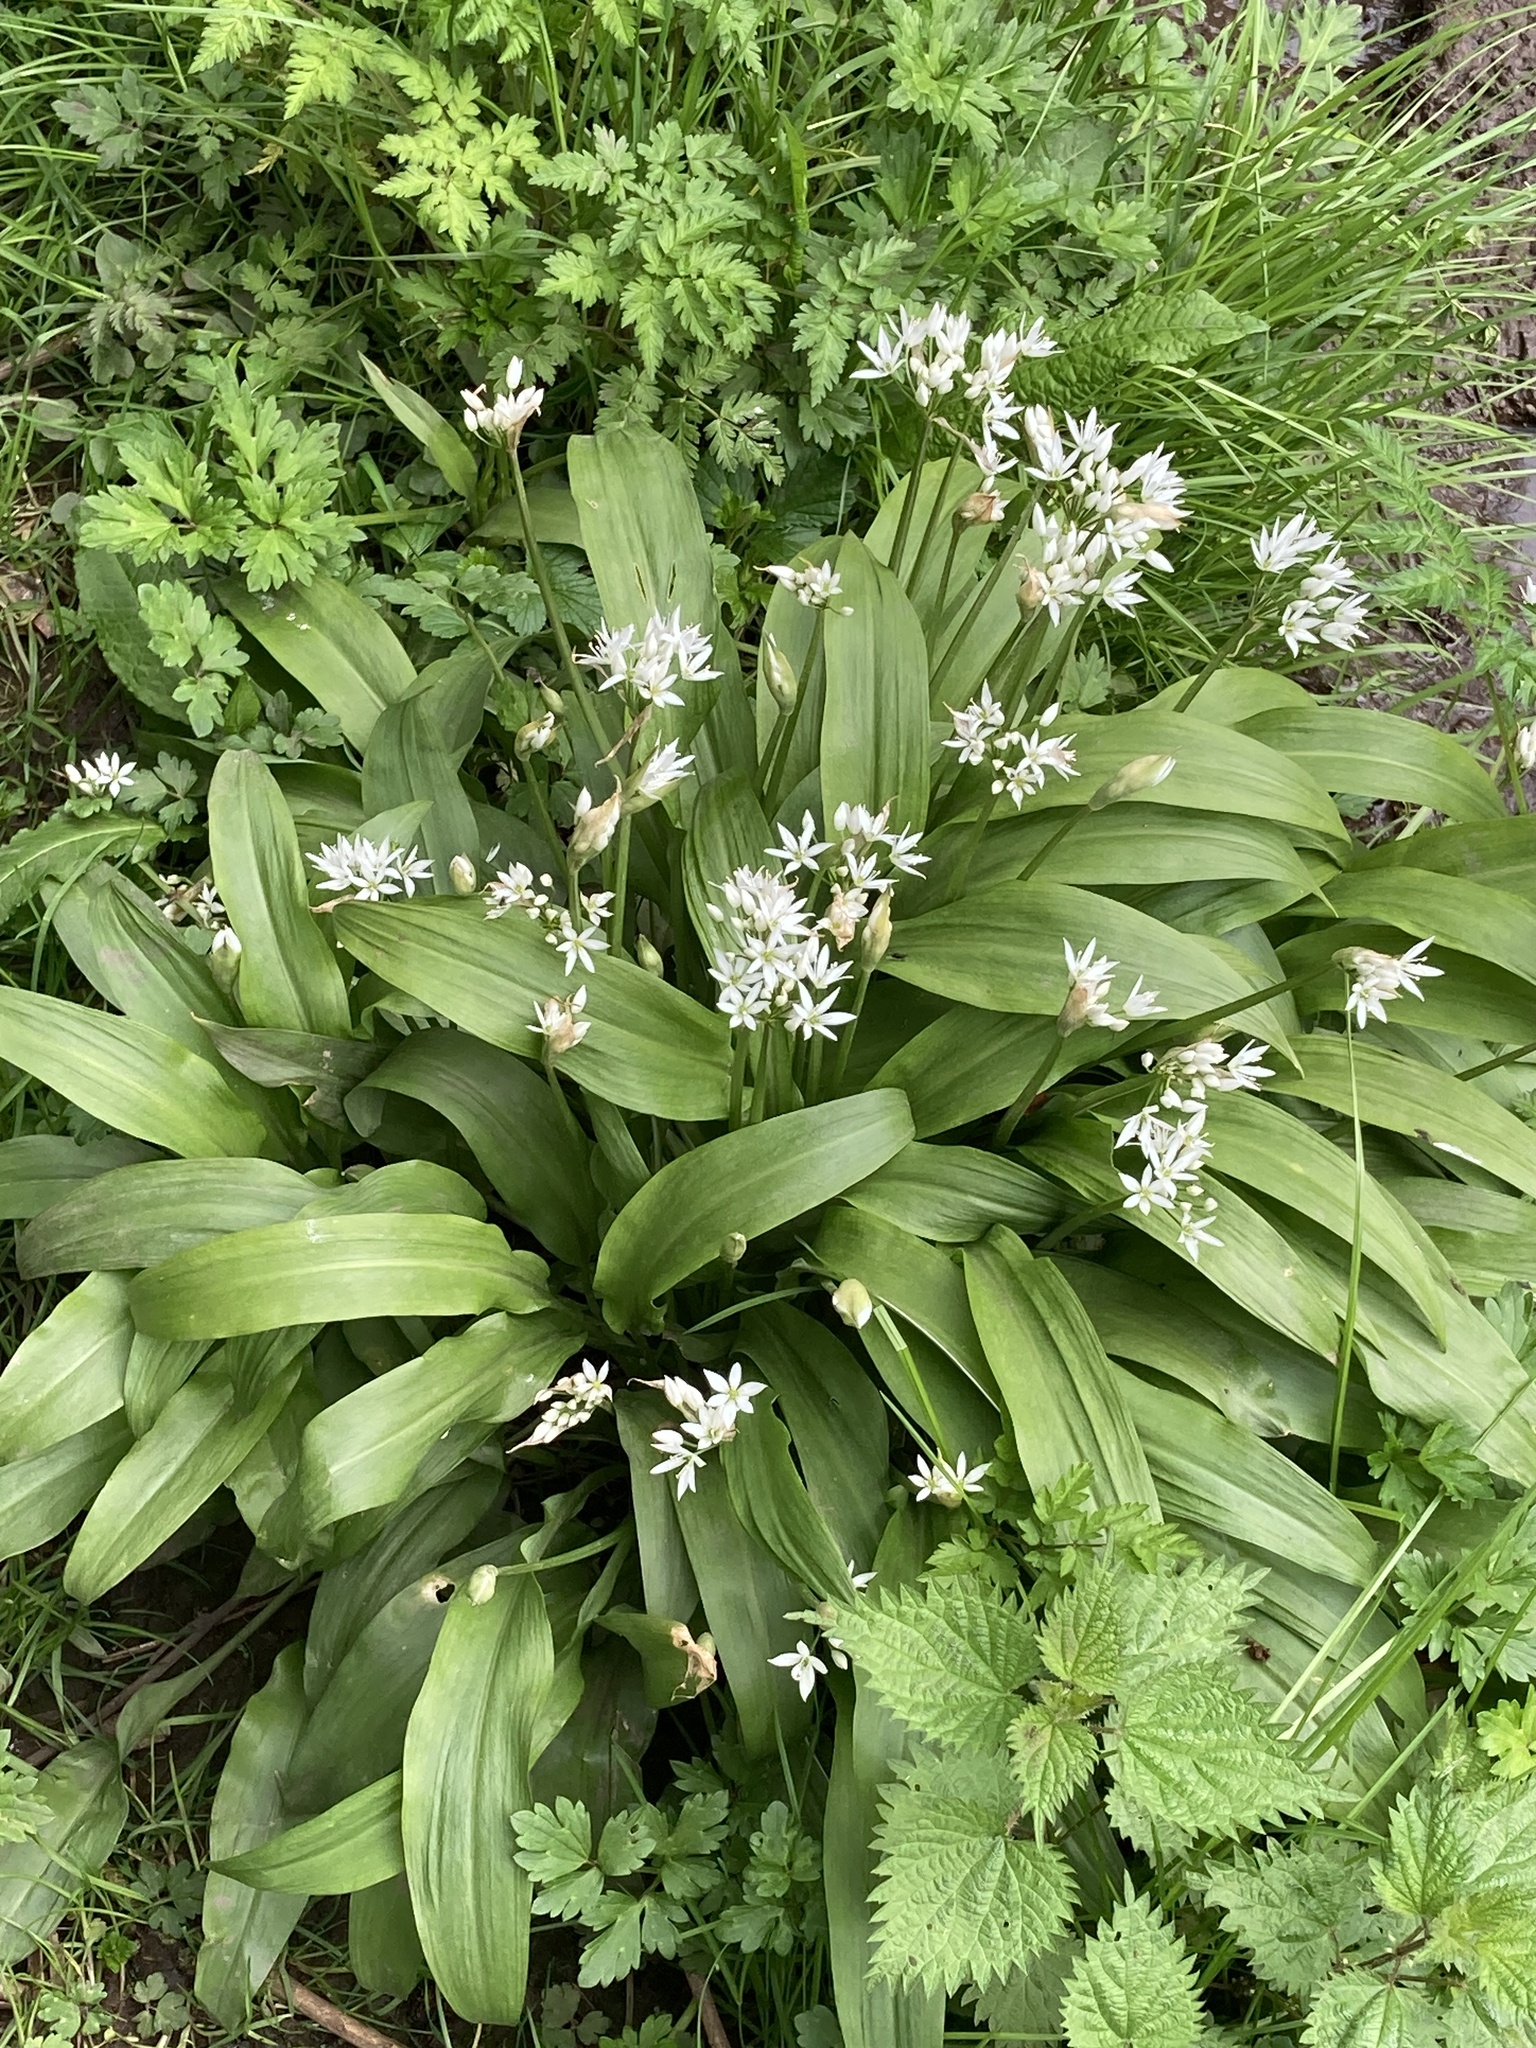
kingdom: Plantae
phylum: Tracheophyta
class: Liliopsida
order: Asparagales
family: Amaryllidaceae
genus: Allium
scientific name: Allium ursinum
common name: Ramsons
